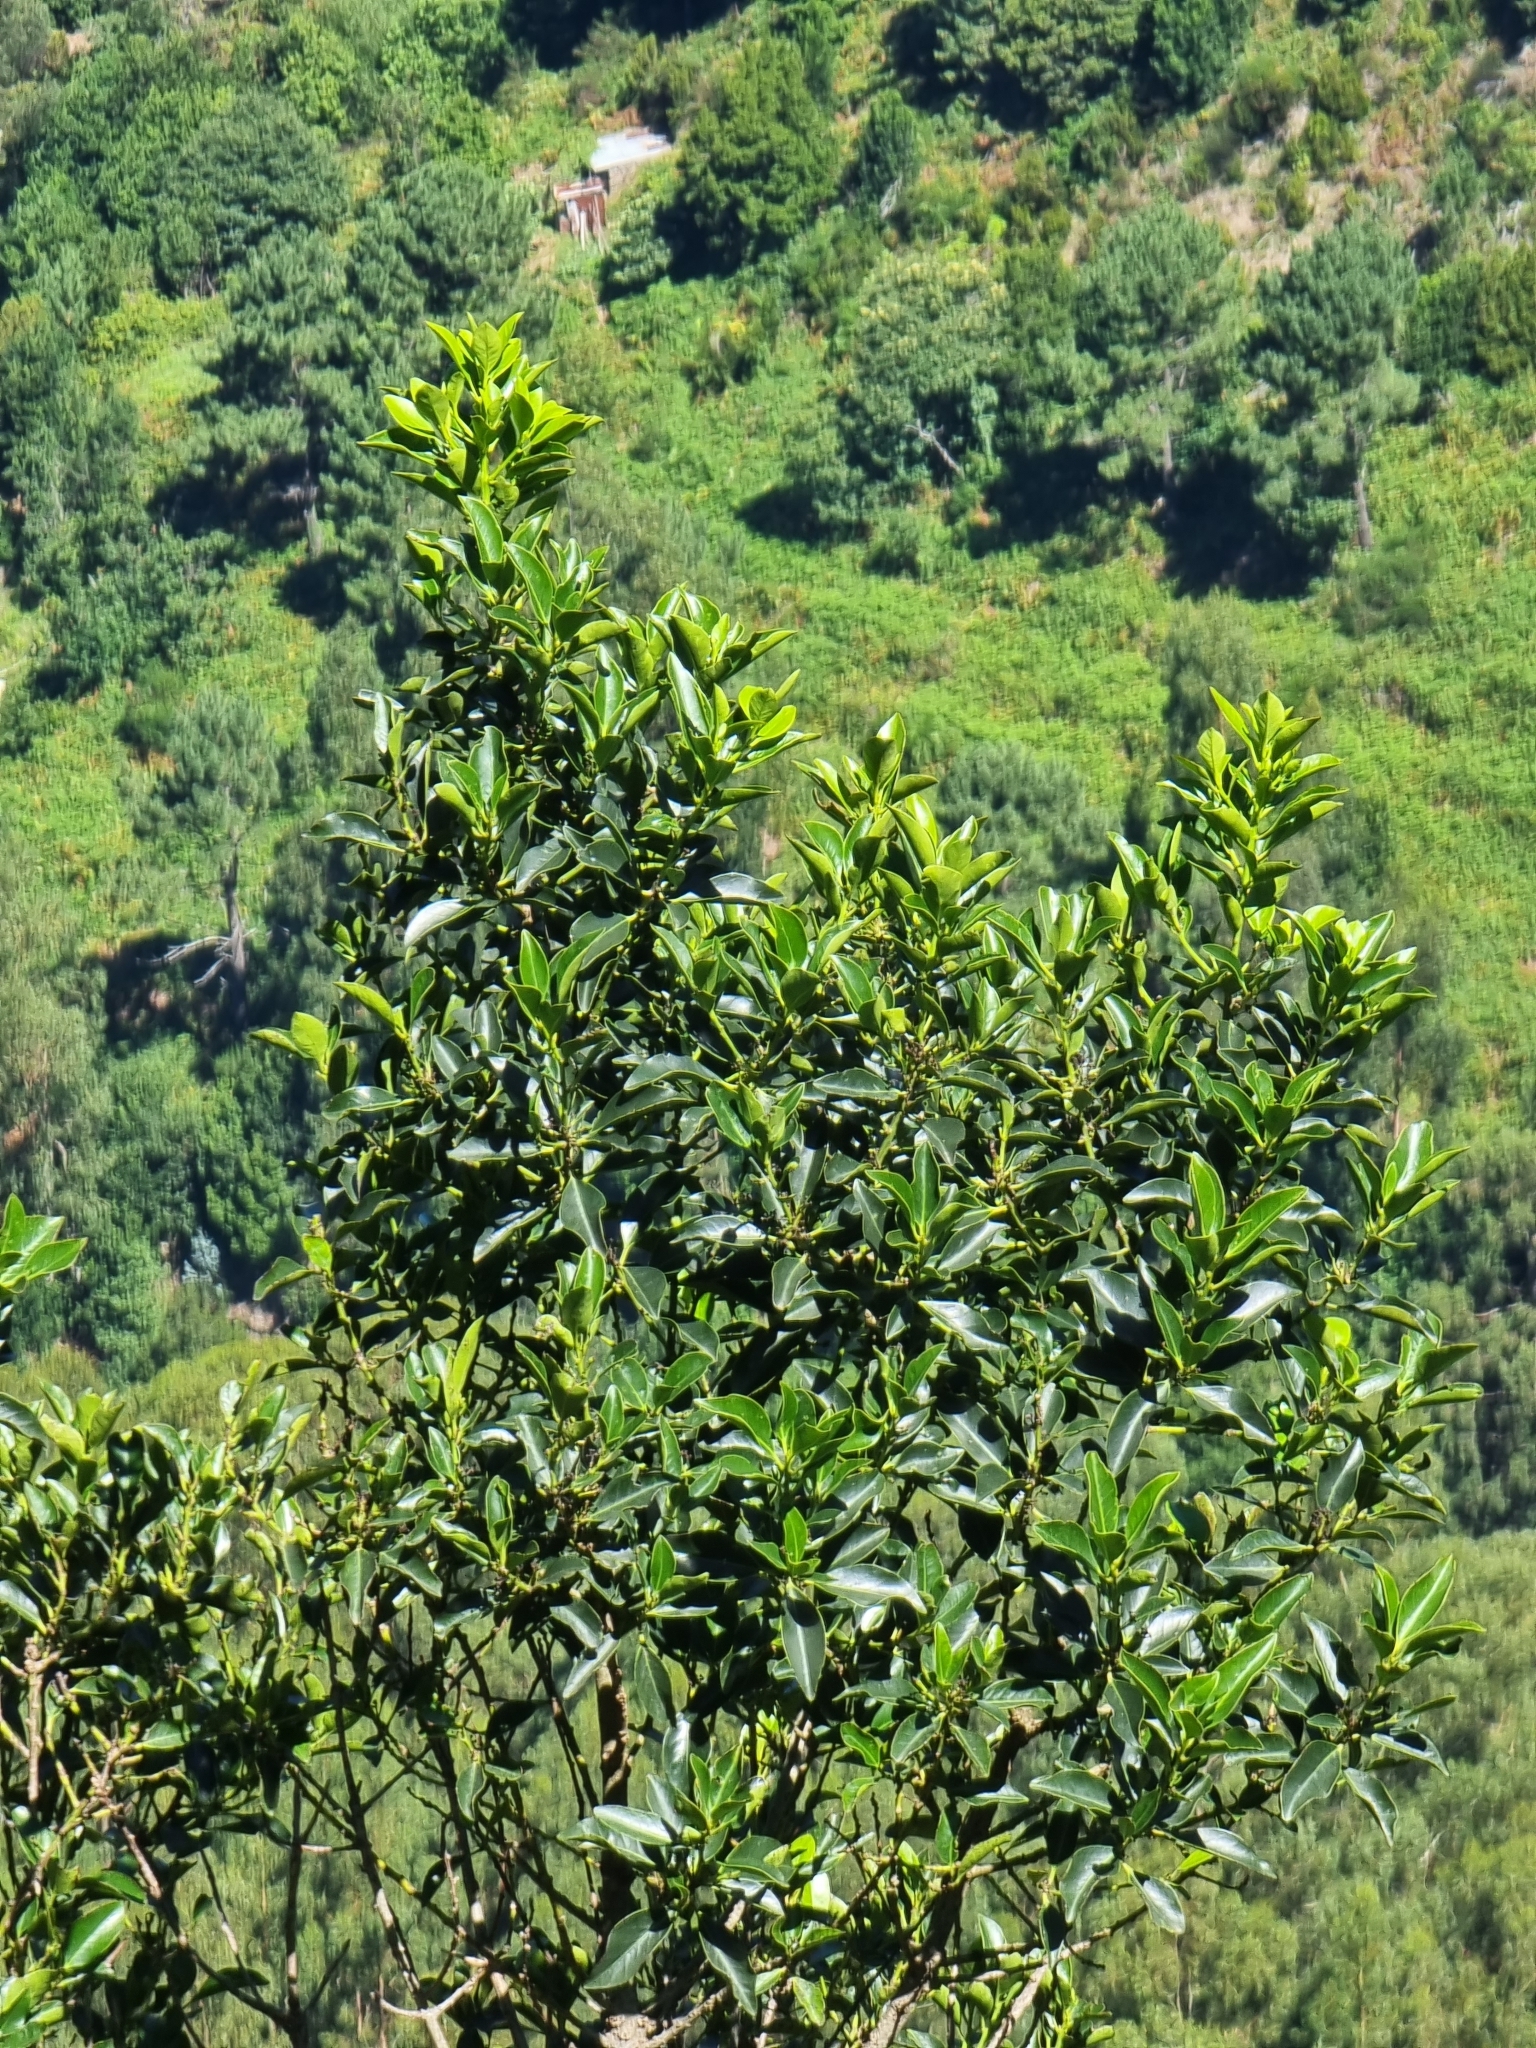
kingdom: Plantae
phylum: Tracheophyta
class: Magnoliopsida
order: Aquifoliales
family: Aquifoliaceae
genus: Ilex
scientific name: Ilex canariensis
